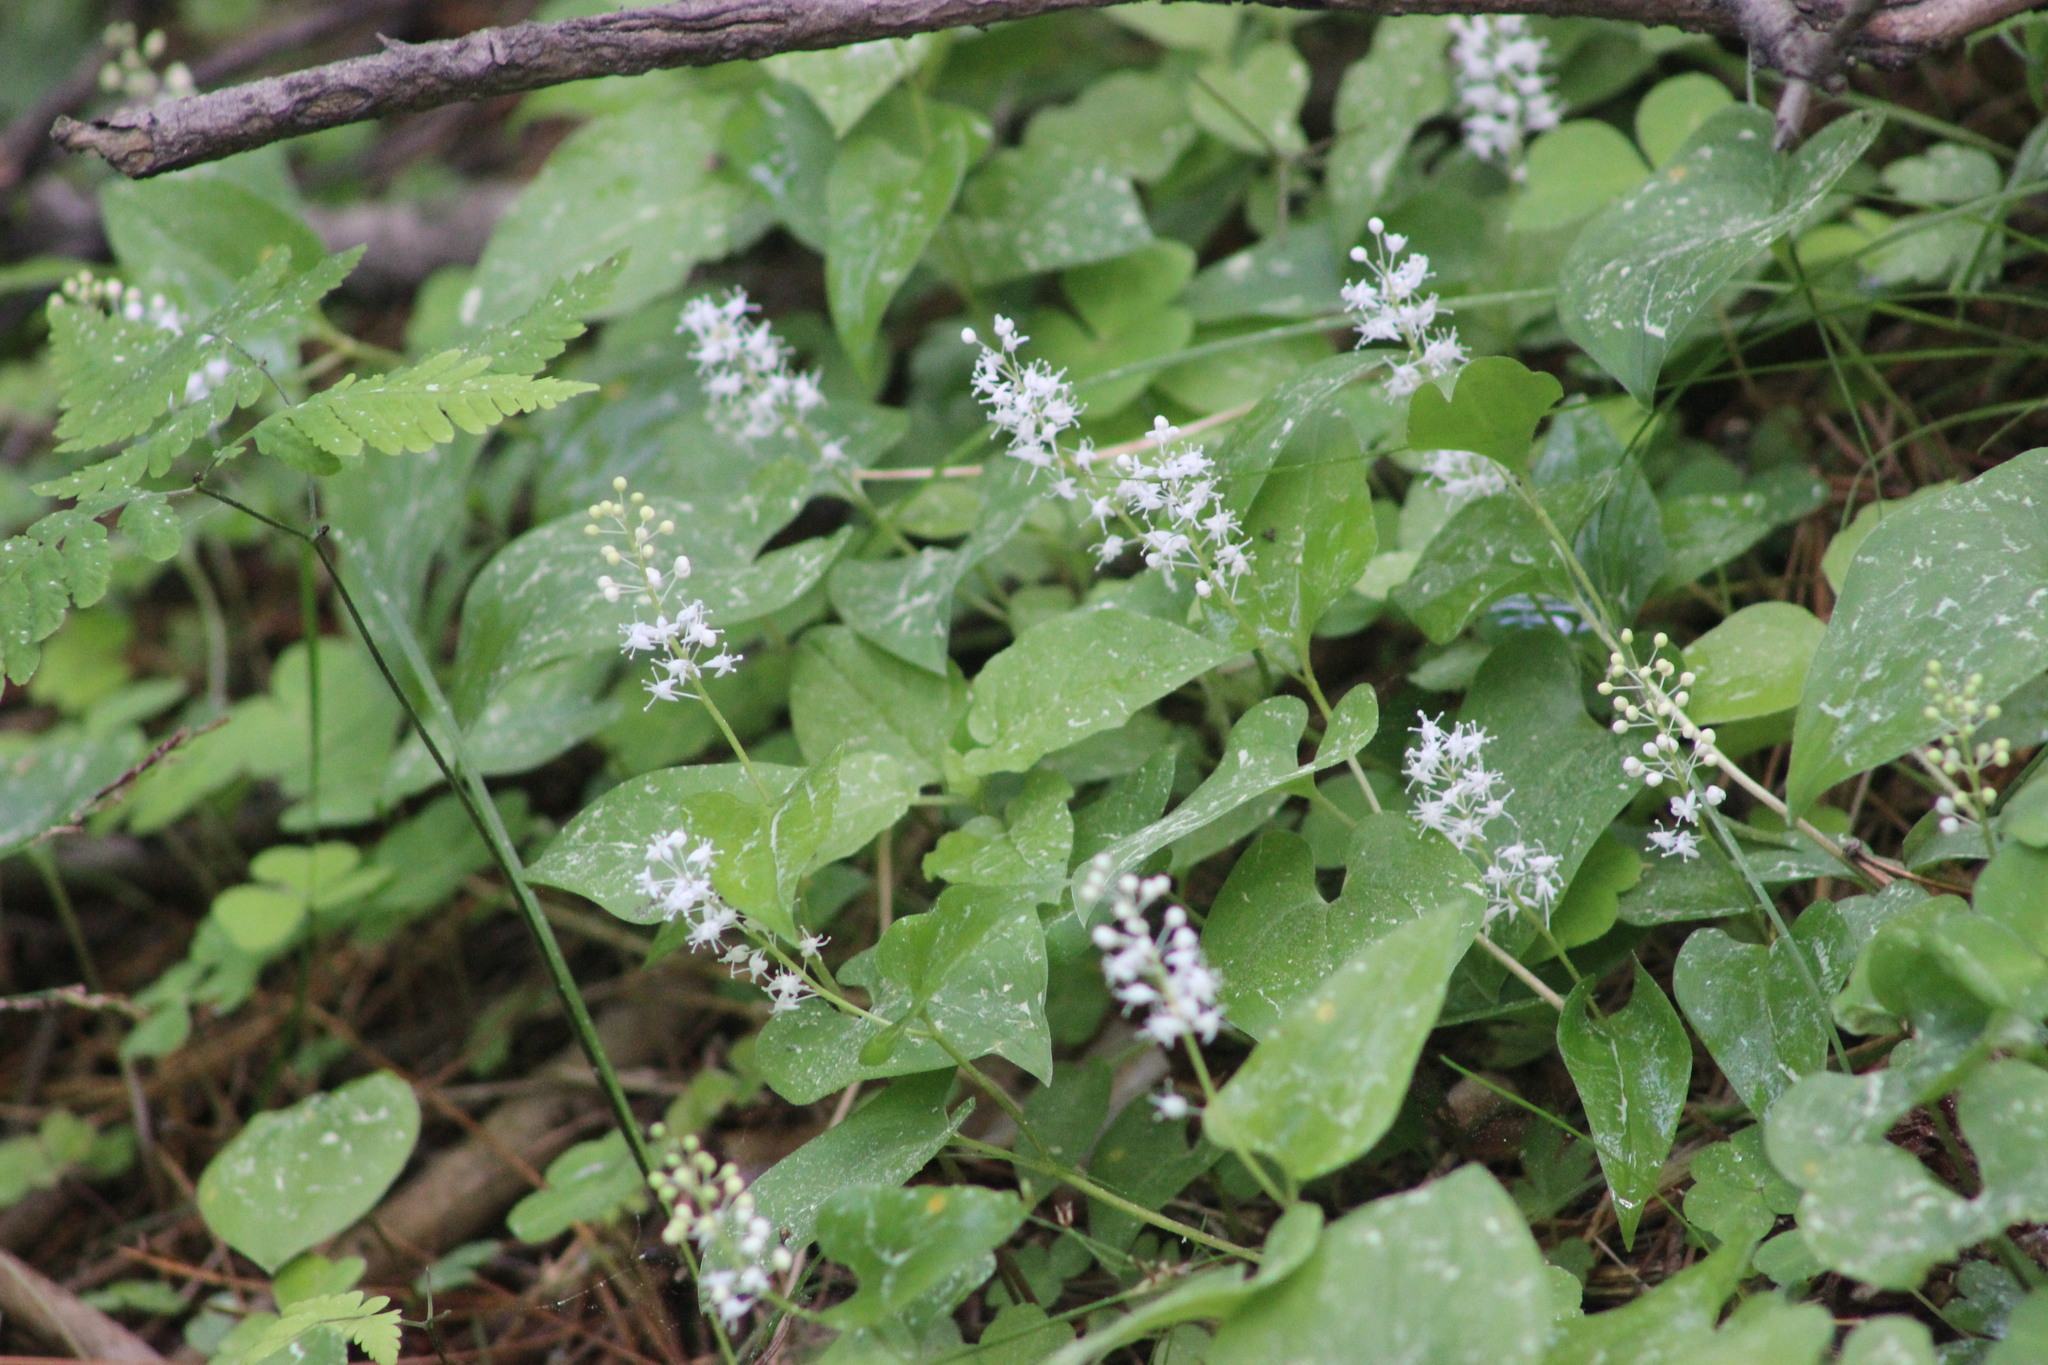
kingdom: Plantae
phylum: Tracheophyta
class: Liliopsida
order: Asparagales
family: Asparagaceae
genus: Maianthemum
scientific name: Maianthemum bifolium
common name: May lily
